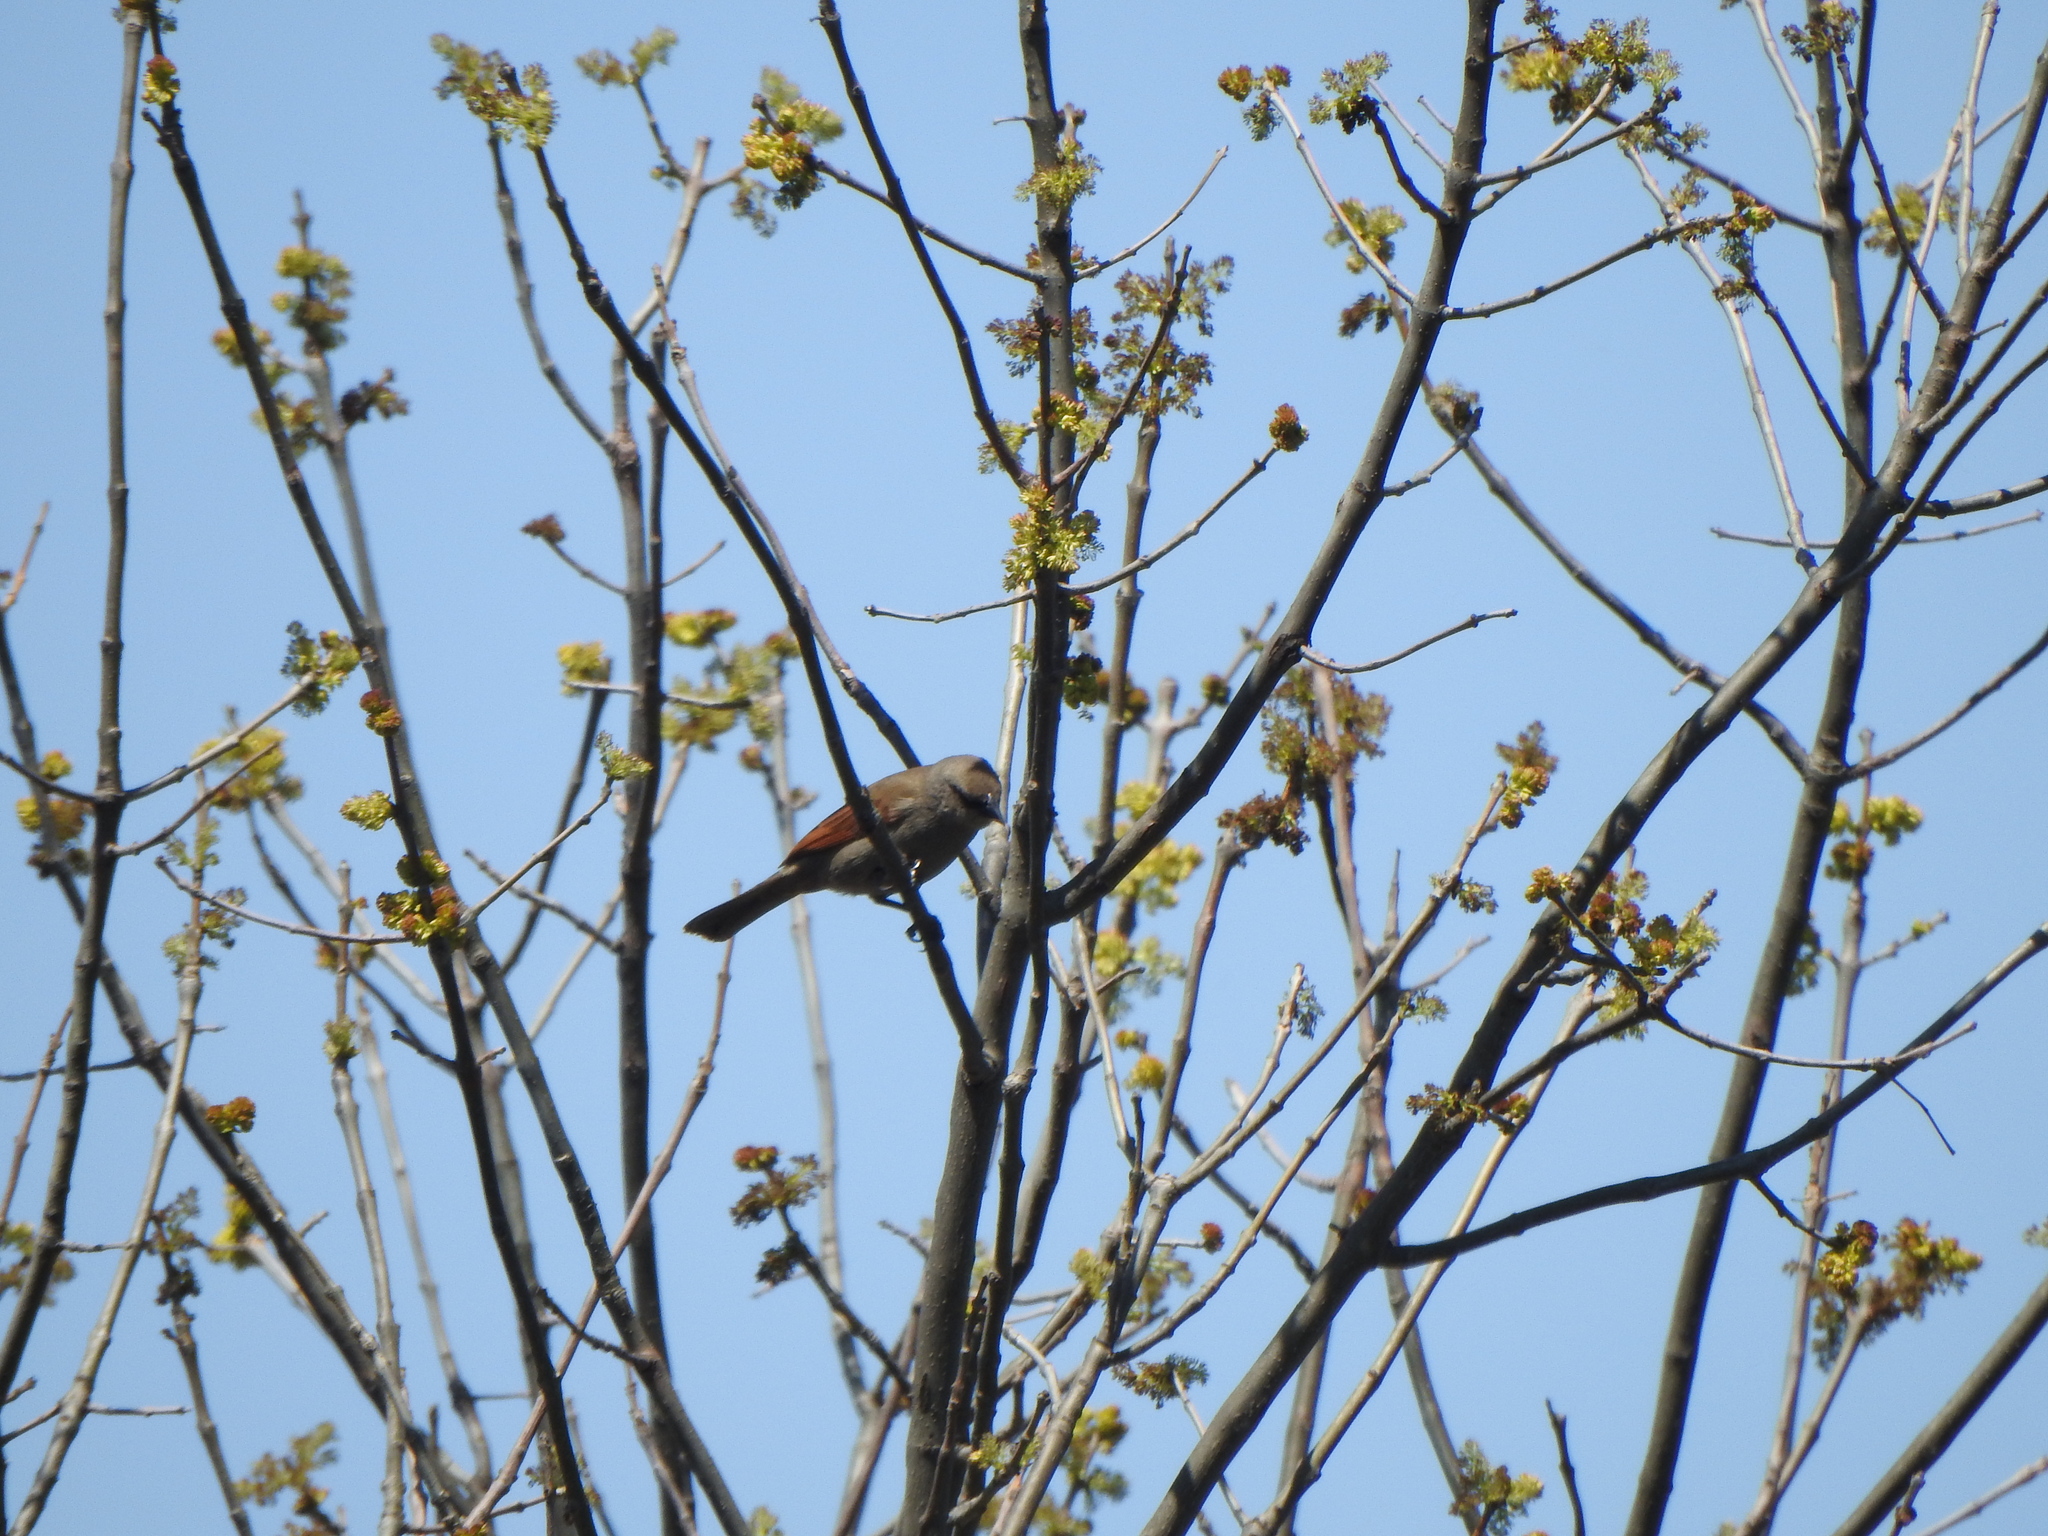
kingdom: Animalia
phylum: Chordata
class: Aves
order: Passeriformes
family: Icteridae
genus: Agelaioides
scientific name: Agelaioides badius
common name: Baywing
